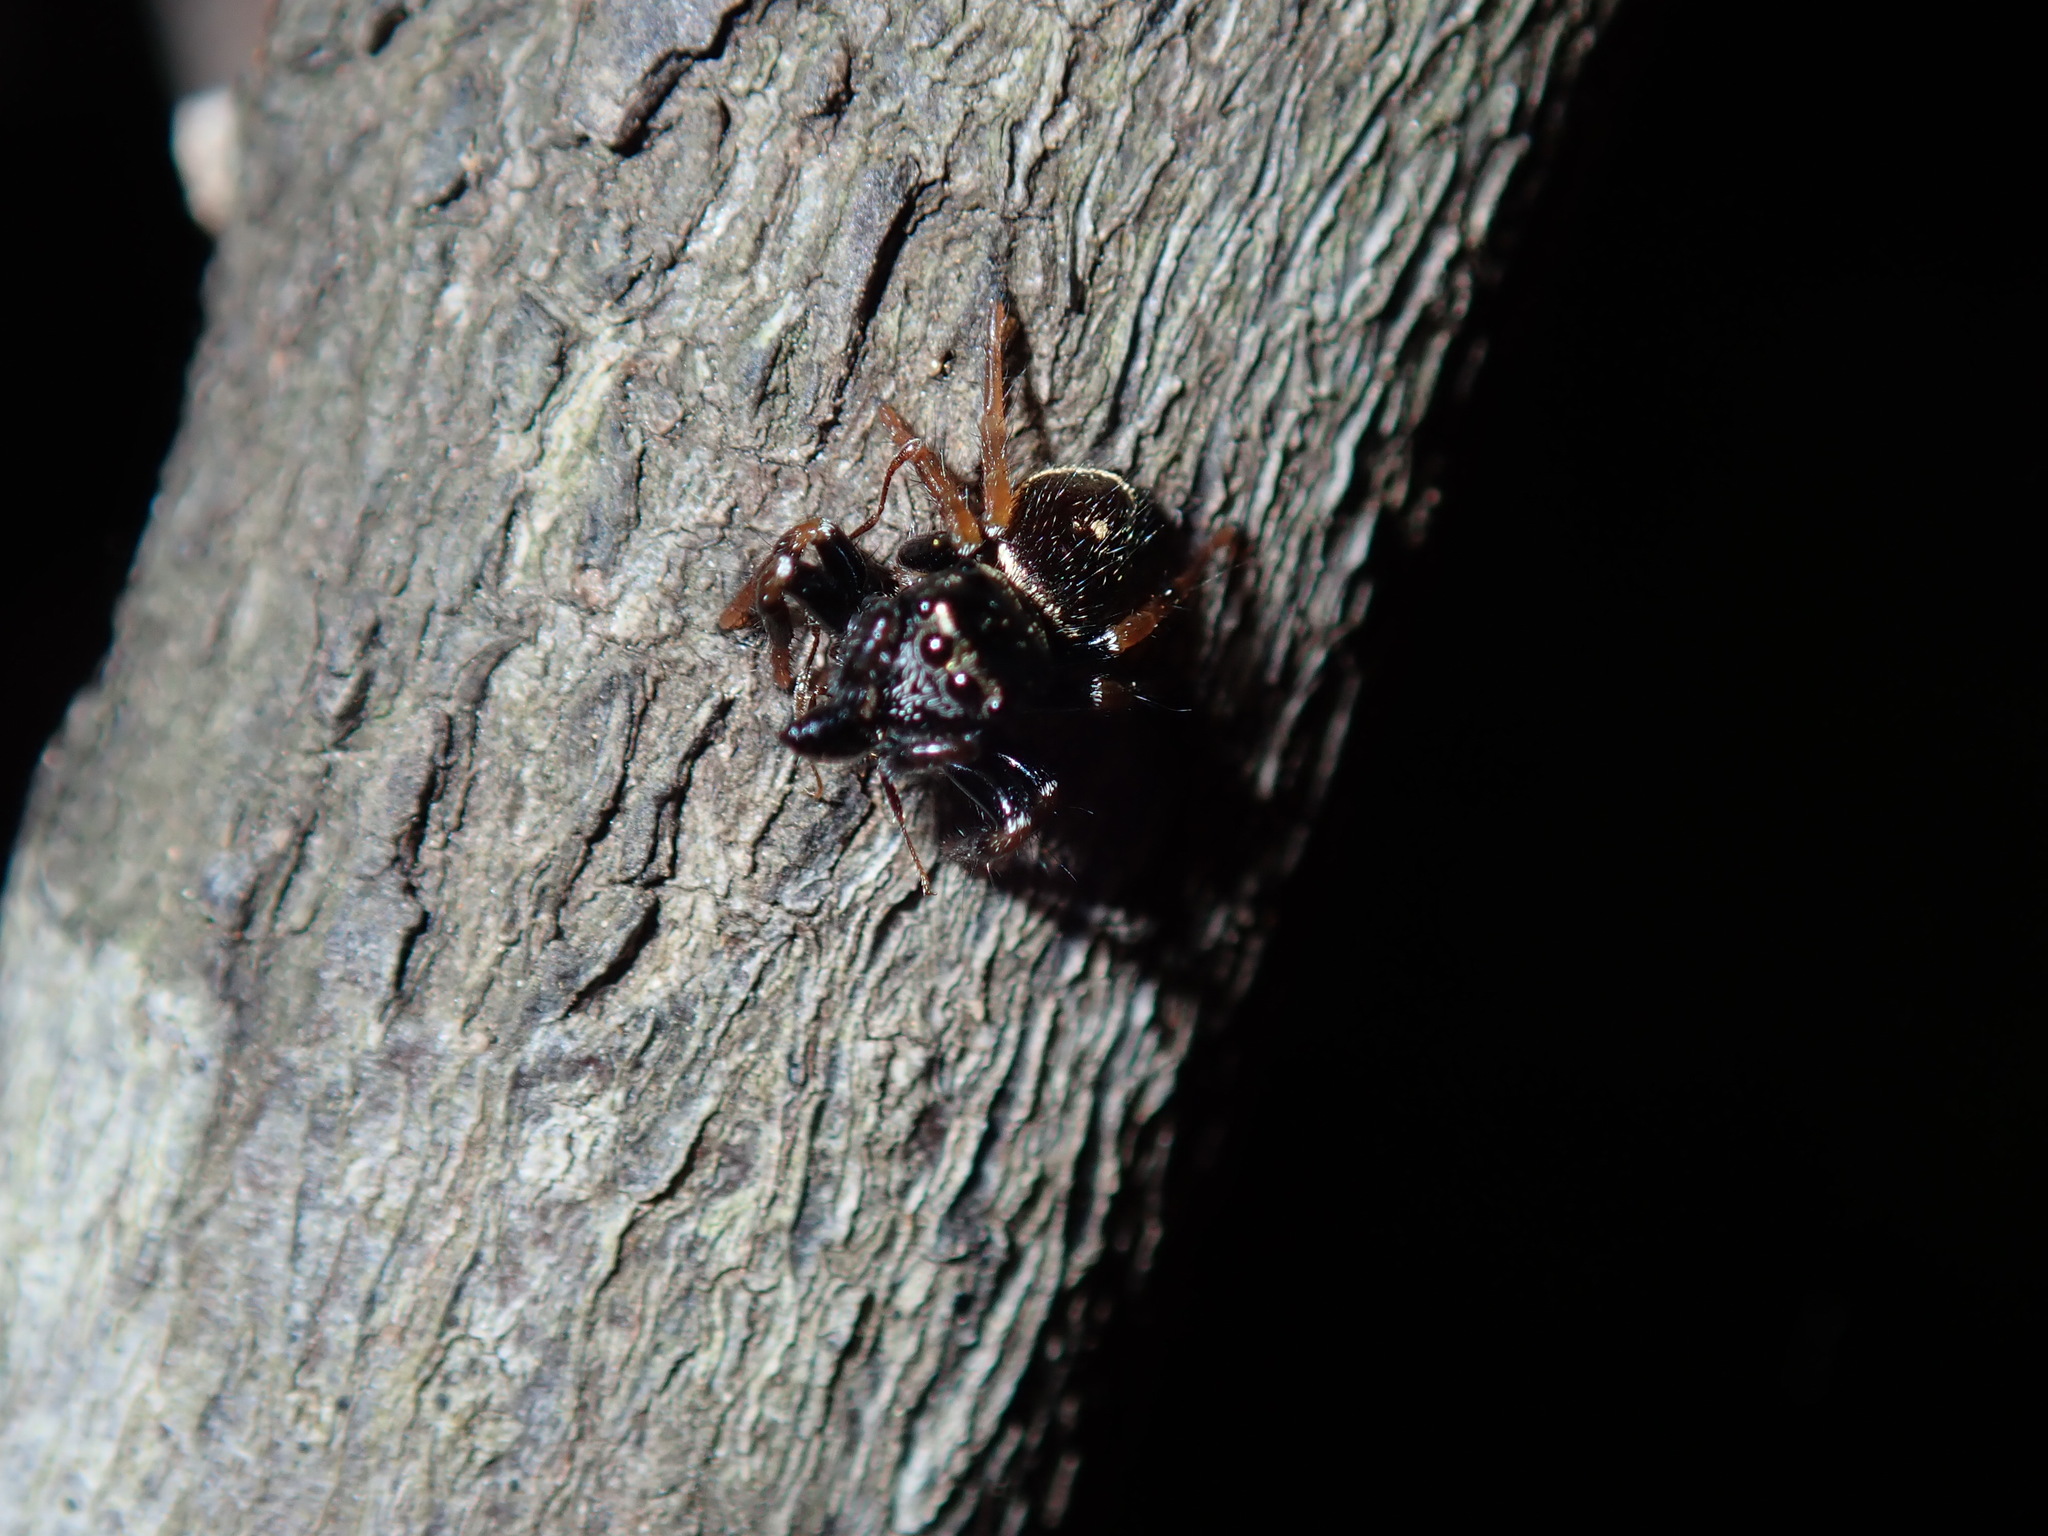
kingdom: Animalia
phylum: Arthropoda
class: Arachnida
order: Araneae
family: Salticidae
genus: Zenodorus
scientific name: Zenodorus orbiculatus
